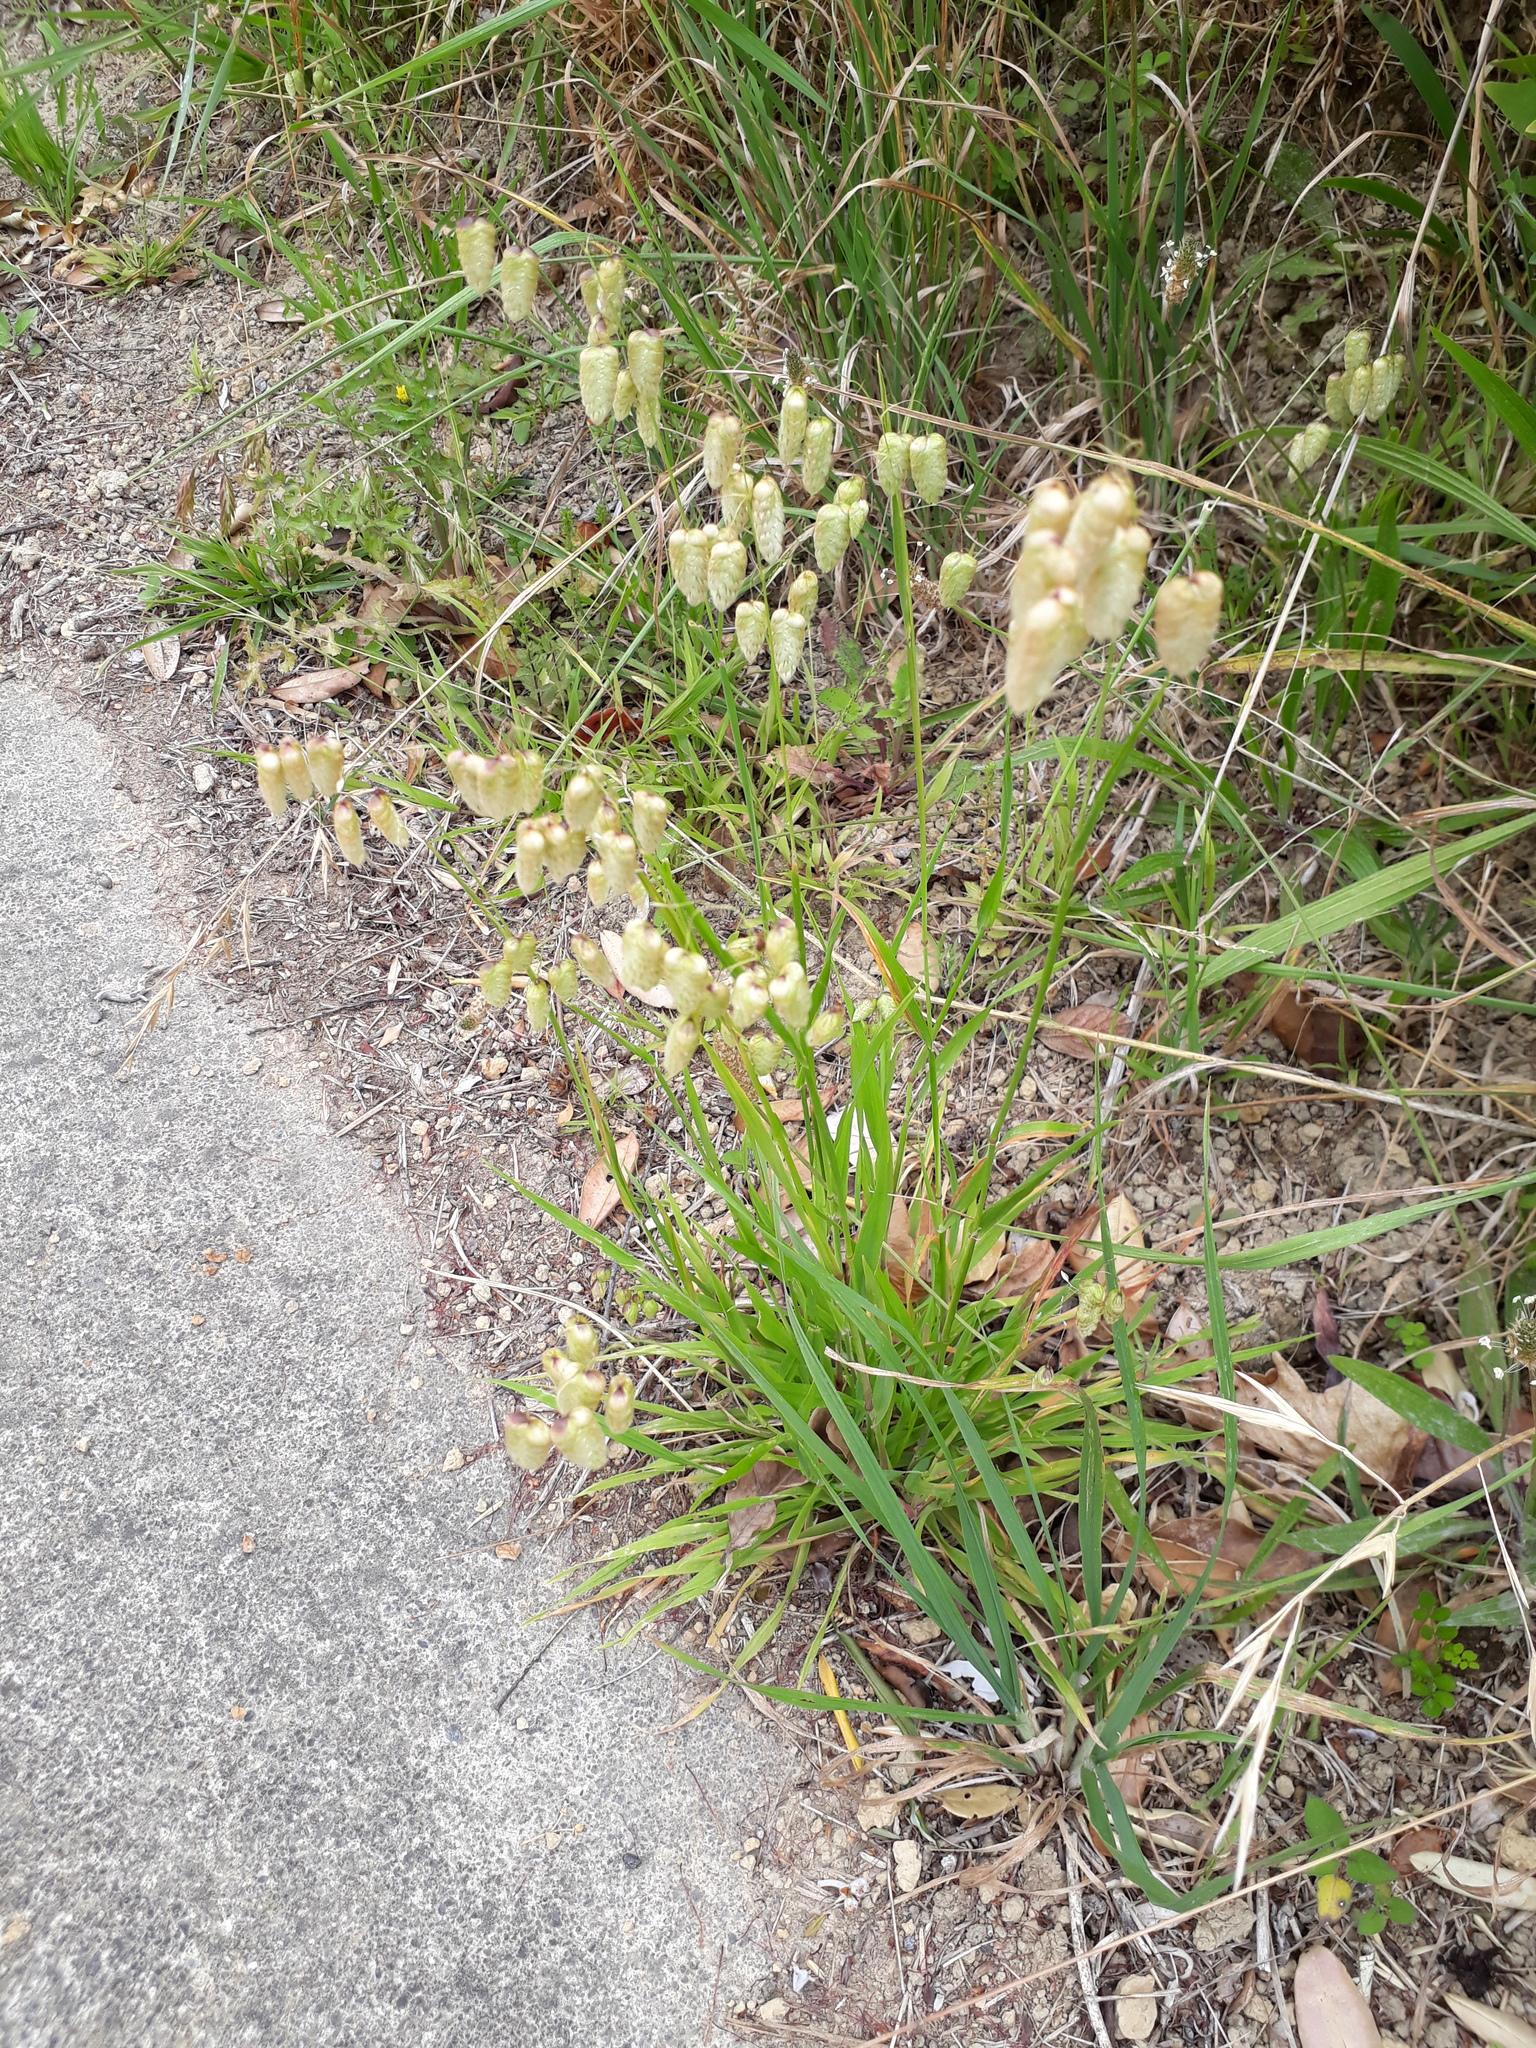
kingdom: Plantae
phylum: Tracheophyta
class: Liliopsida
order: Poales
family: Poaceae
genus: Briza
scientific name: Briza maxima
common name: Big quakinggrass
